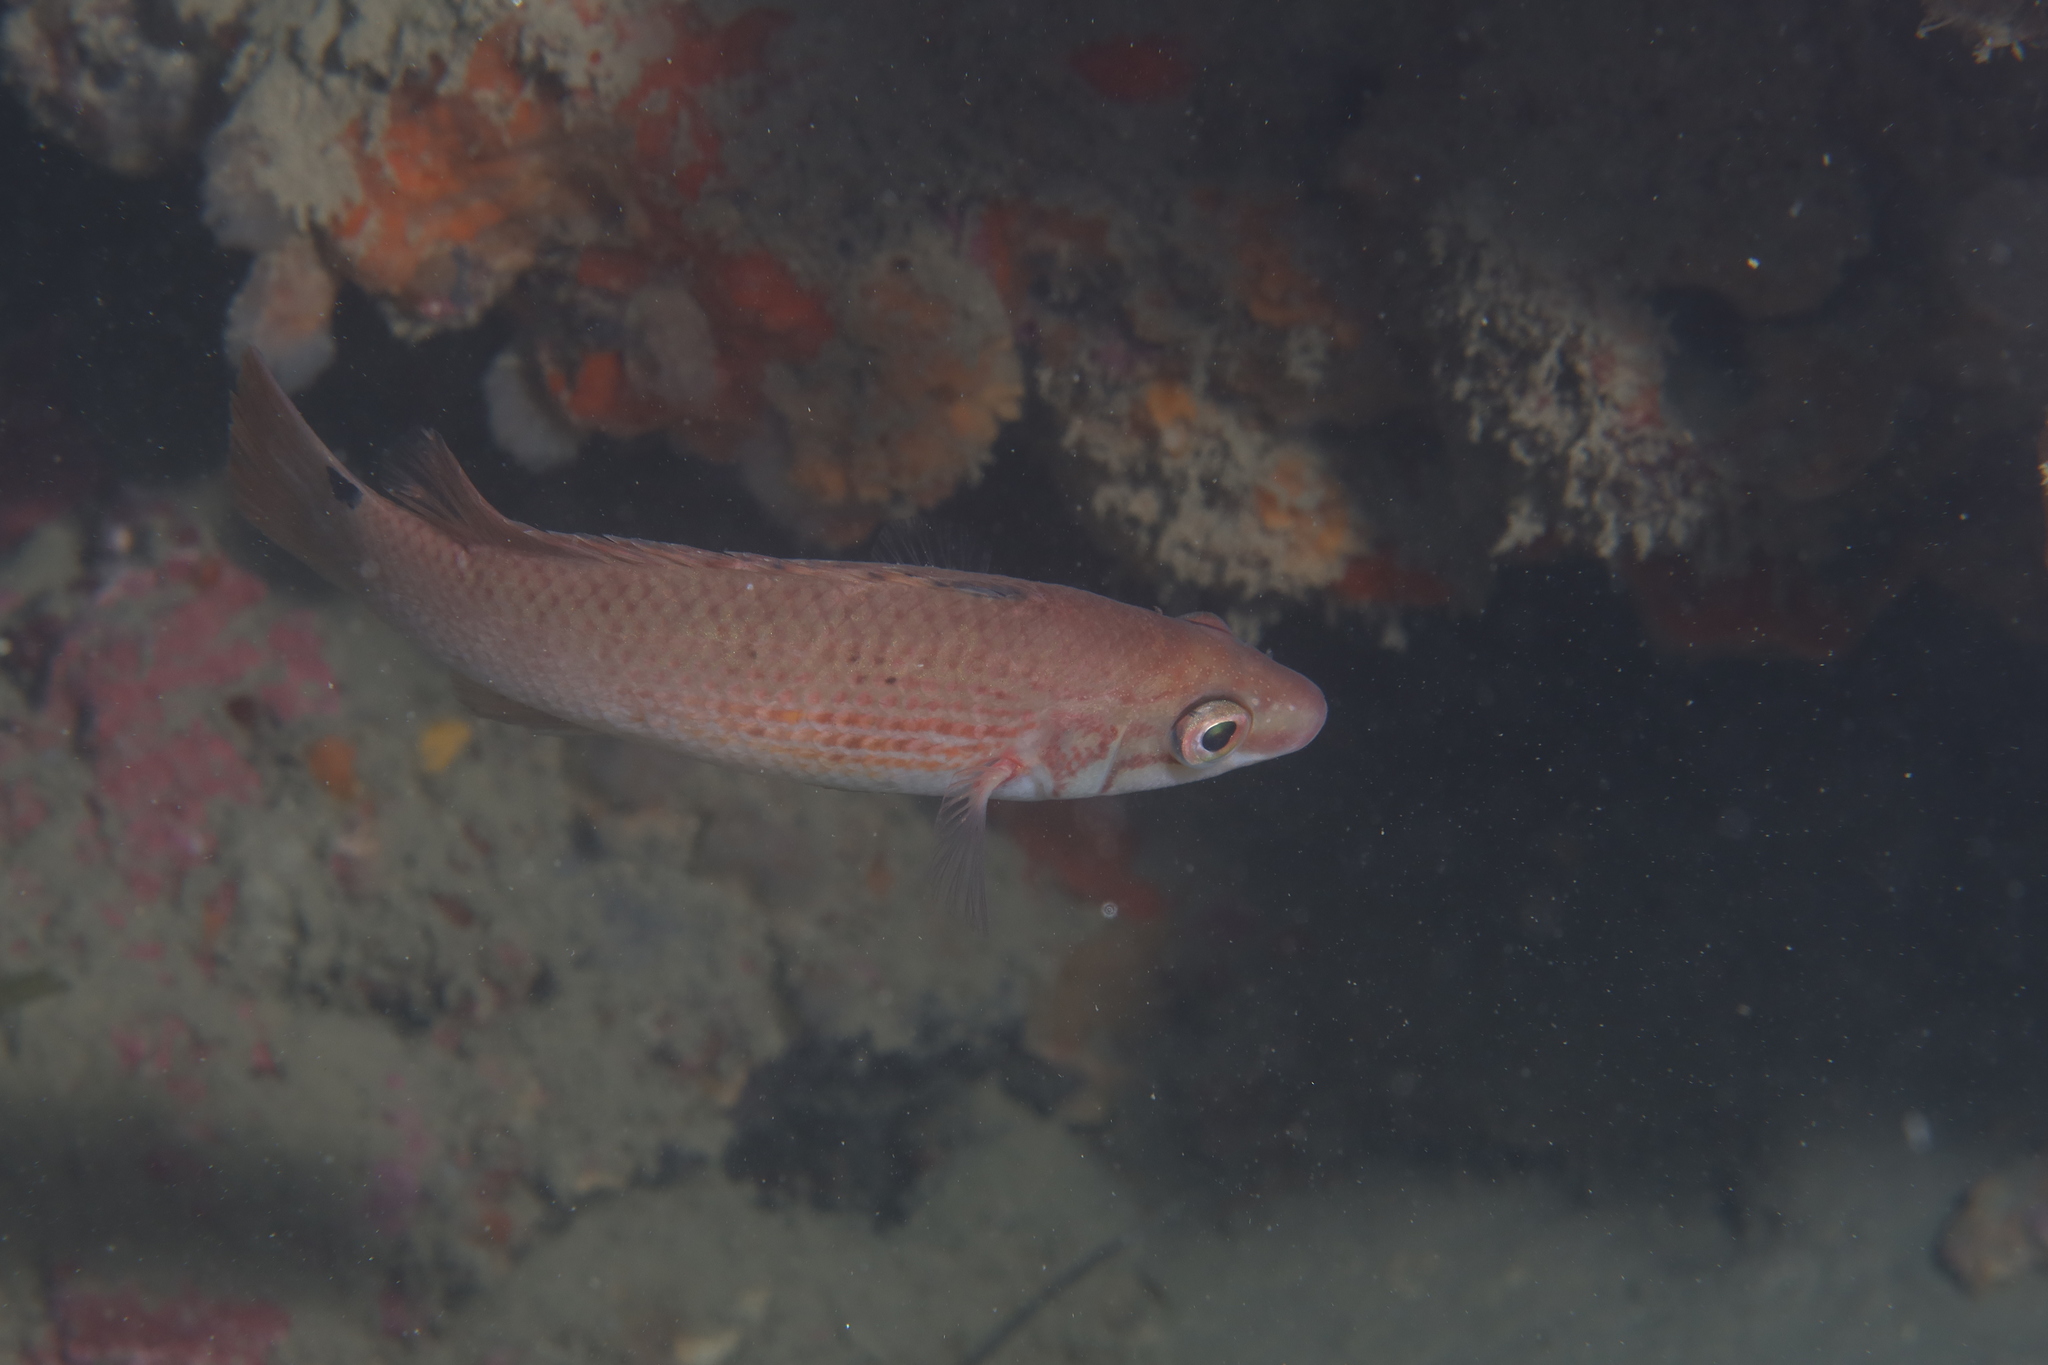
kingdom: Animalia
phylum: Chordata
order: Perciformes
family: Labridae
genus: Ctenolabrus
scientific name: Ctenolabrus rupestris
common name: Goldsinny
